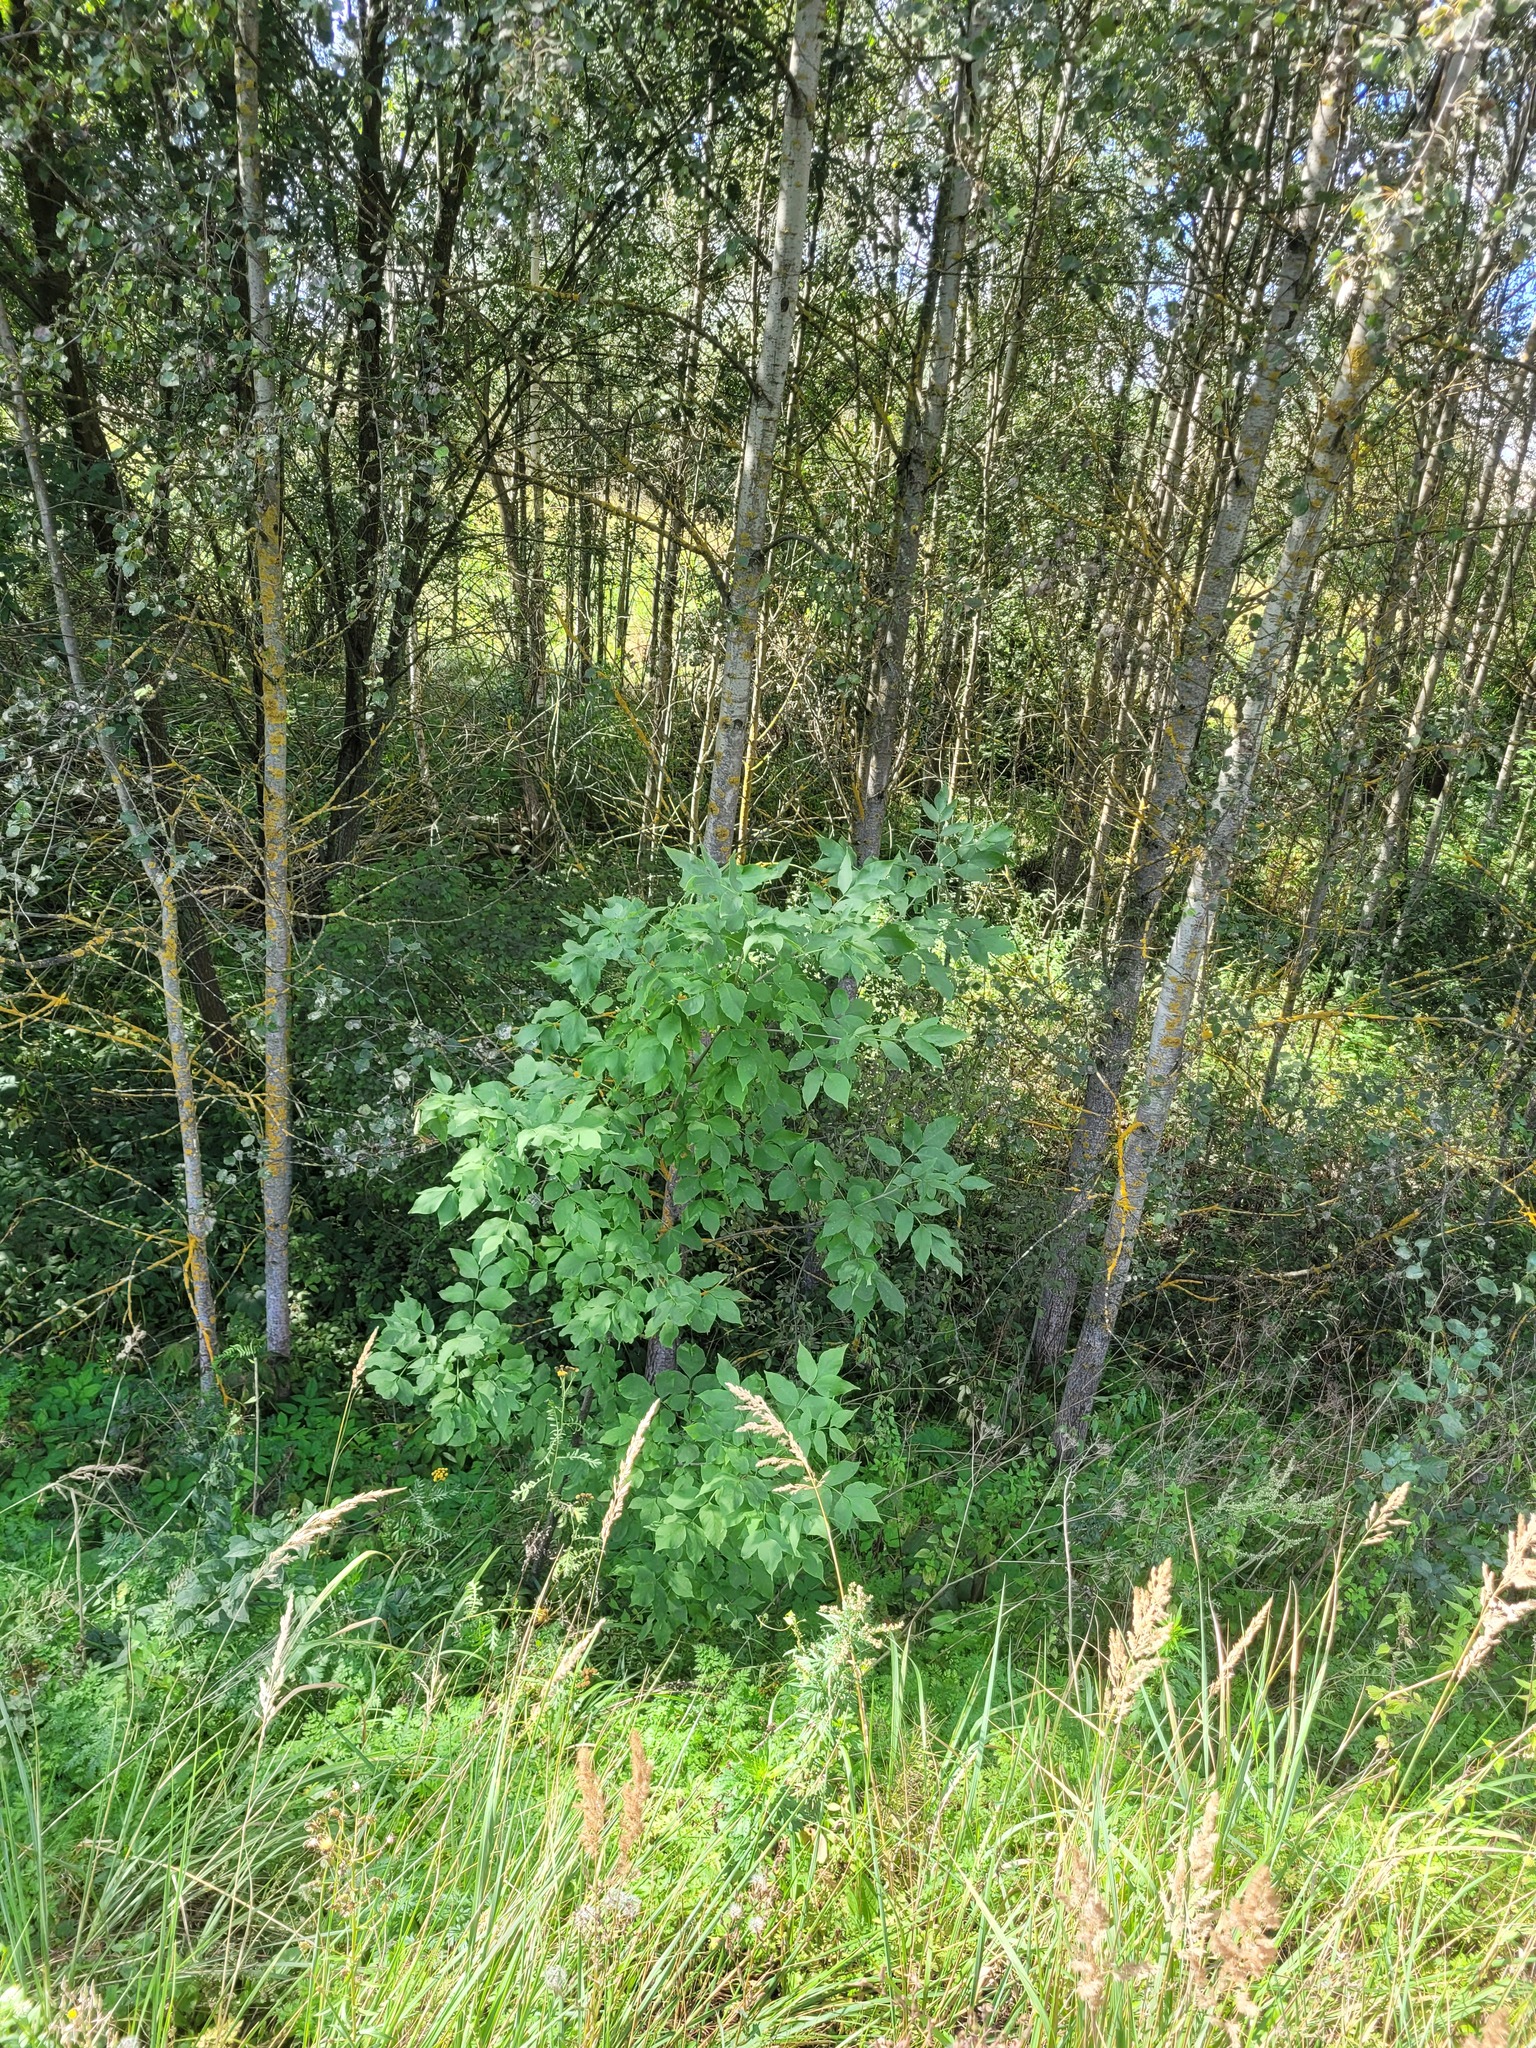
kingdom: Plantae
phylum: Tracheophyta
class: Magnoliopsida
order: Lamiales
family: Oleaceae
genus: Fraxinus
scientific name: Fraxinus pennsylvanica
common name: Green ash
